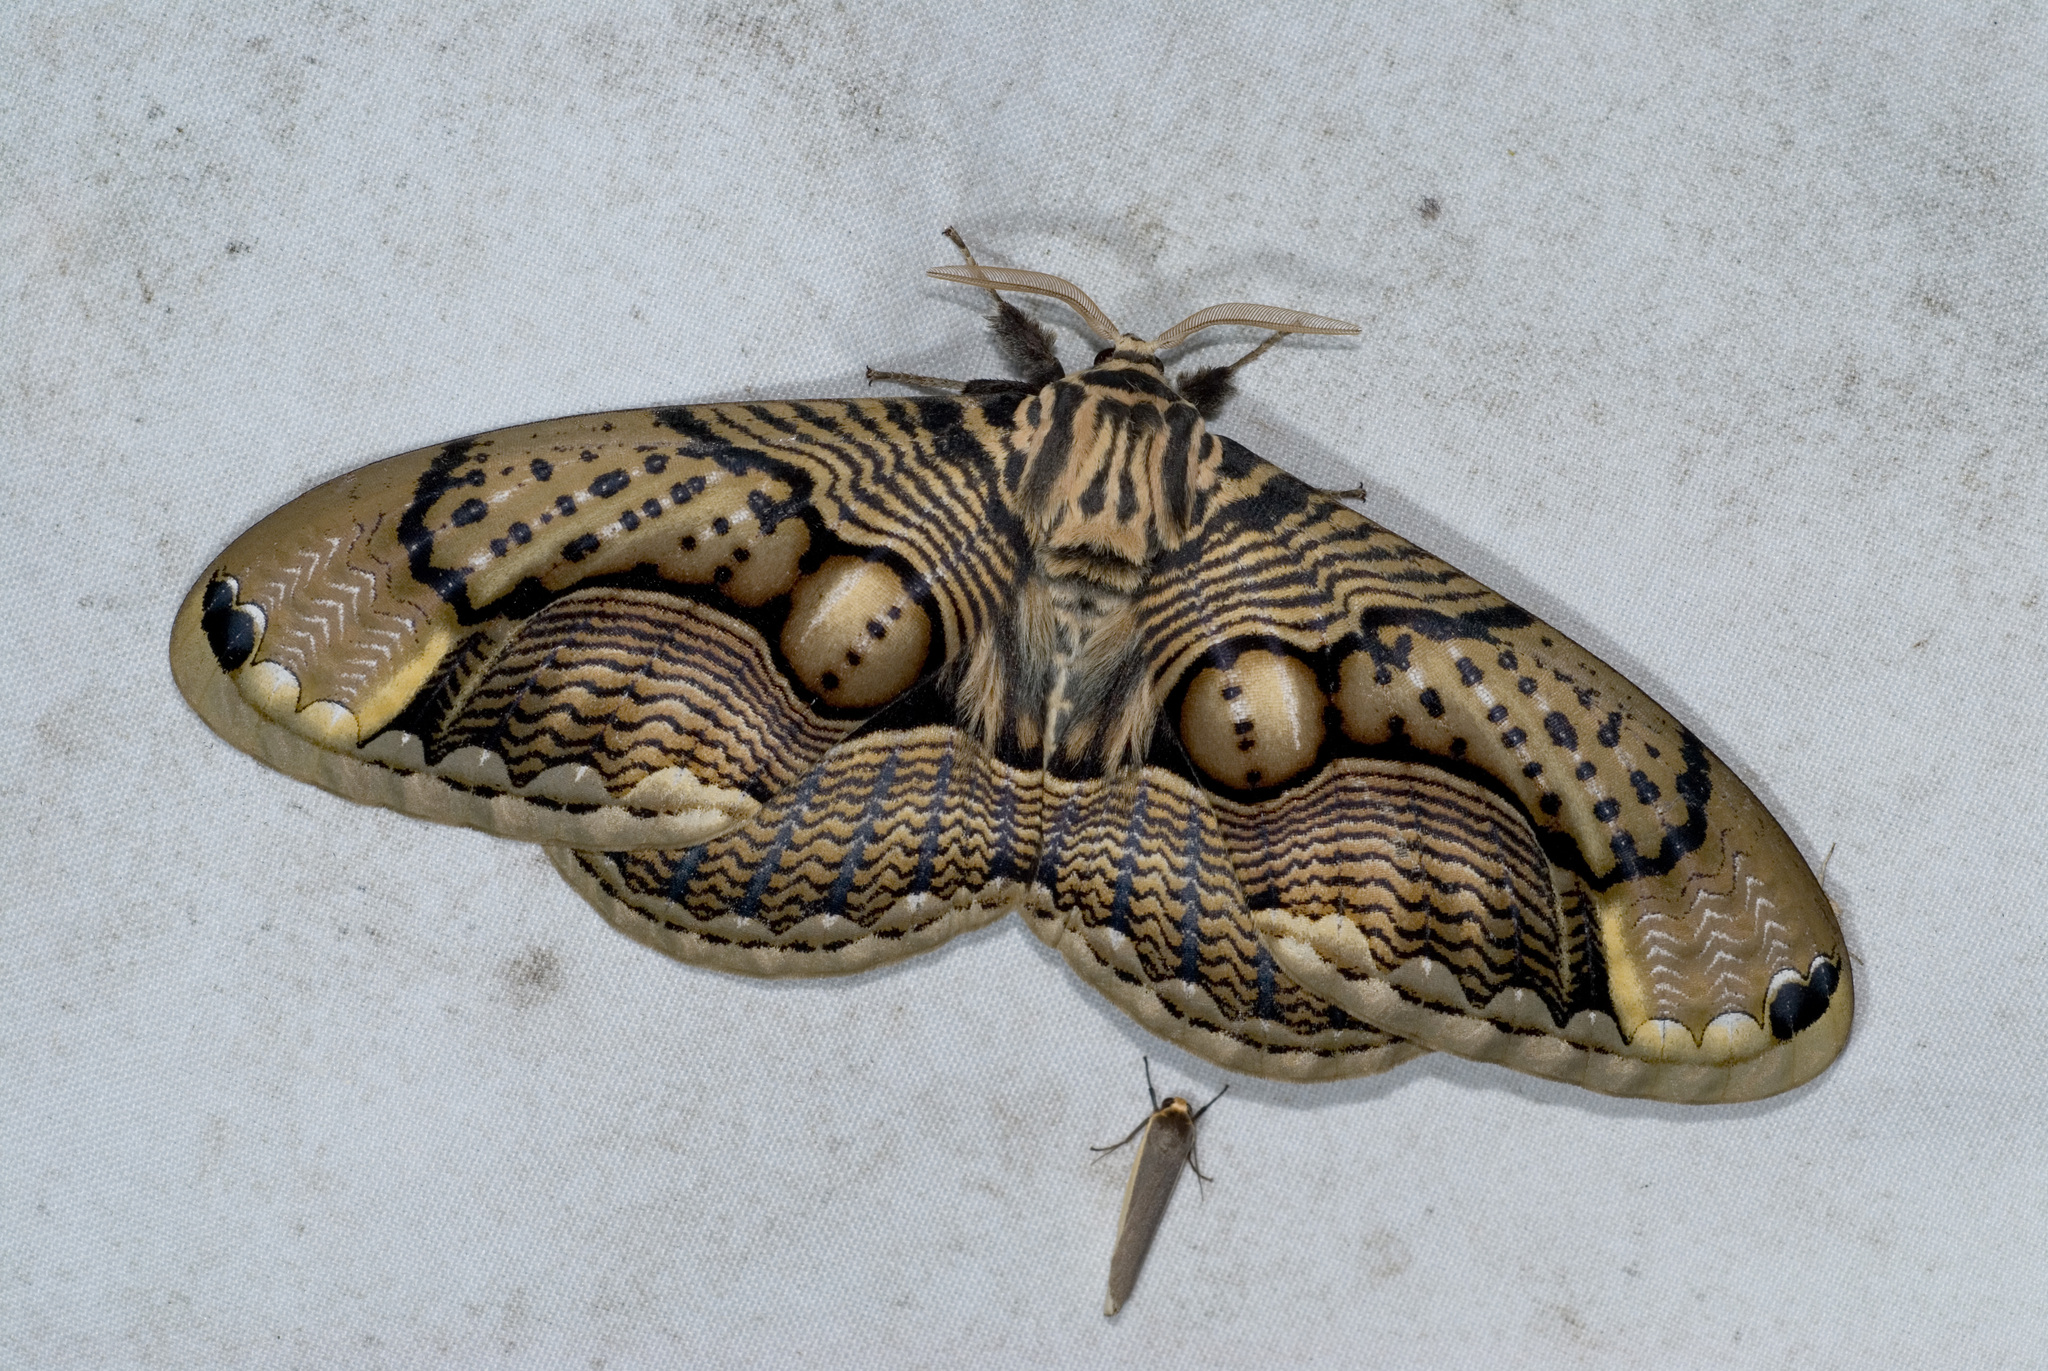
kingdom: Animalia
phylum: Arthropoda
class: Insecta
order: Lepidoptera
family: Brahmaeidae
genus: Brahmaea
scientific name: Brahmaea wallichii
